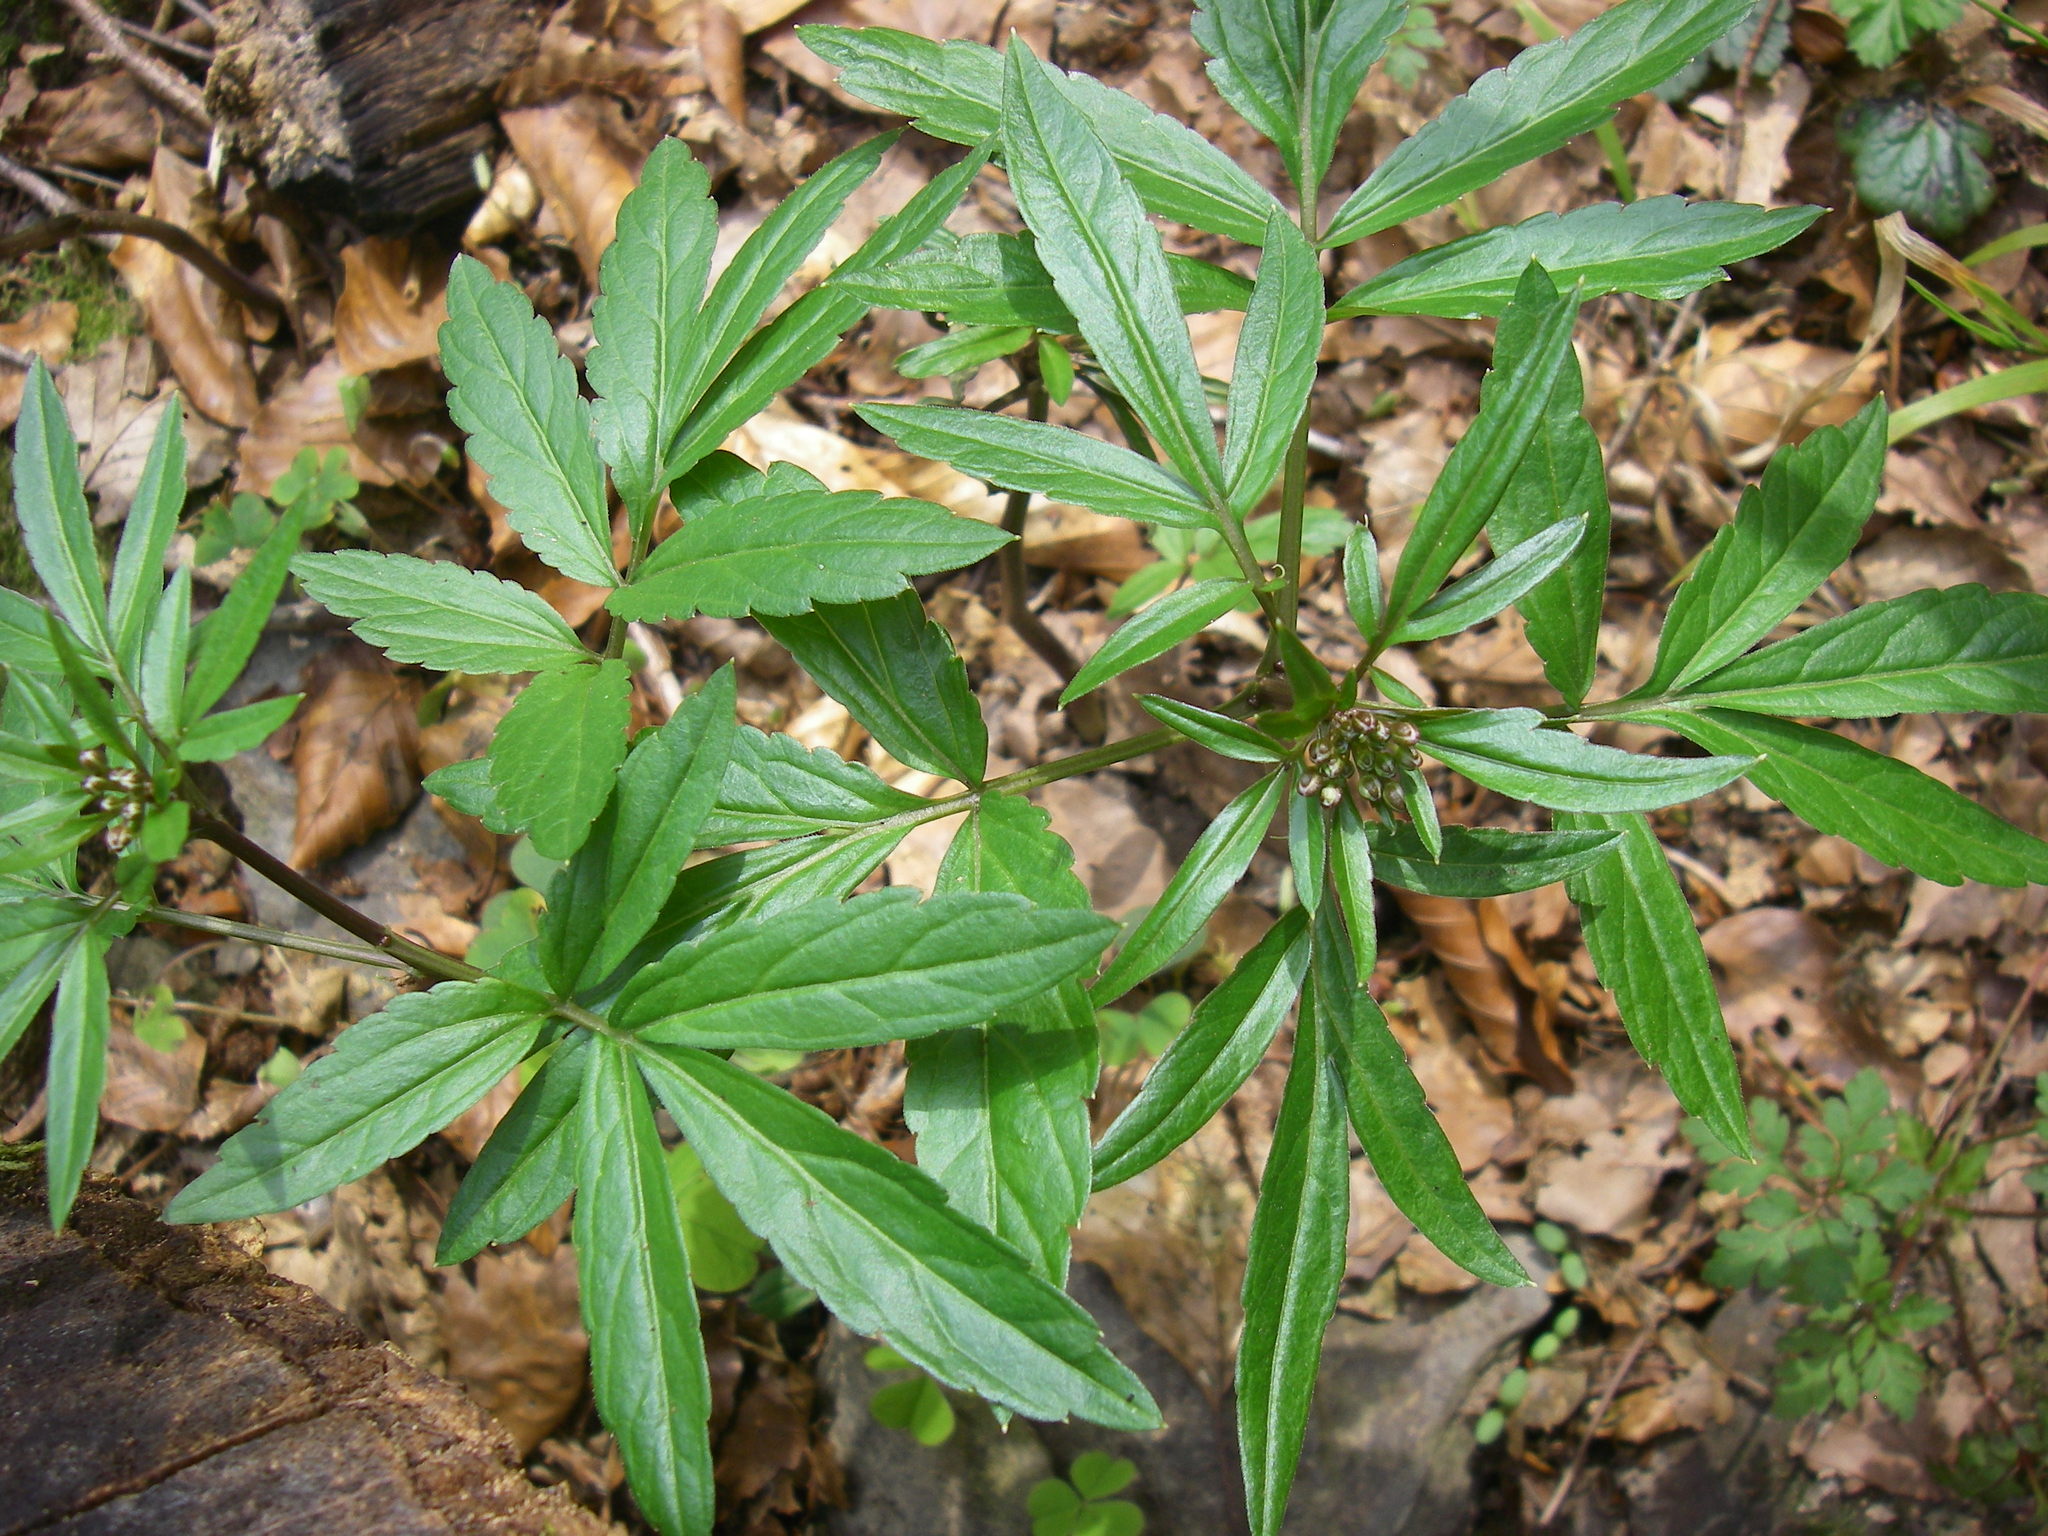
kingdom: Plantae
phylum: Tracheophyta
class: Magnoliopsida
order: Brassicales
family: Brassicaceae
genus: Cardamine
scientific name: Cardamine bulbifera
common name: Coralroot bittercress
